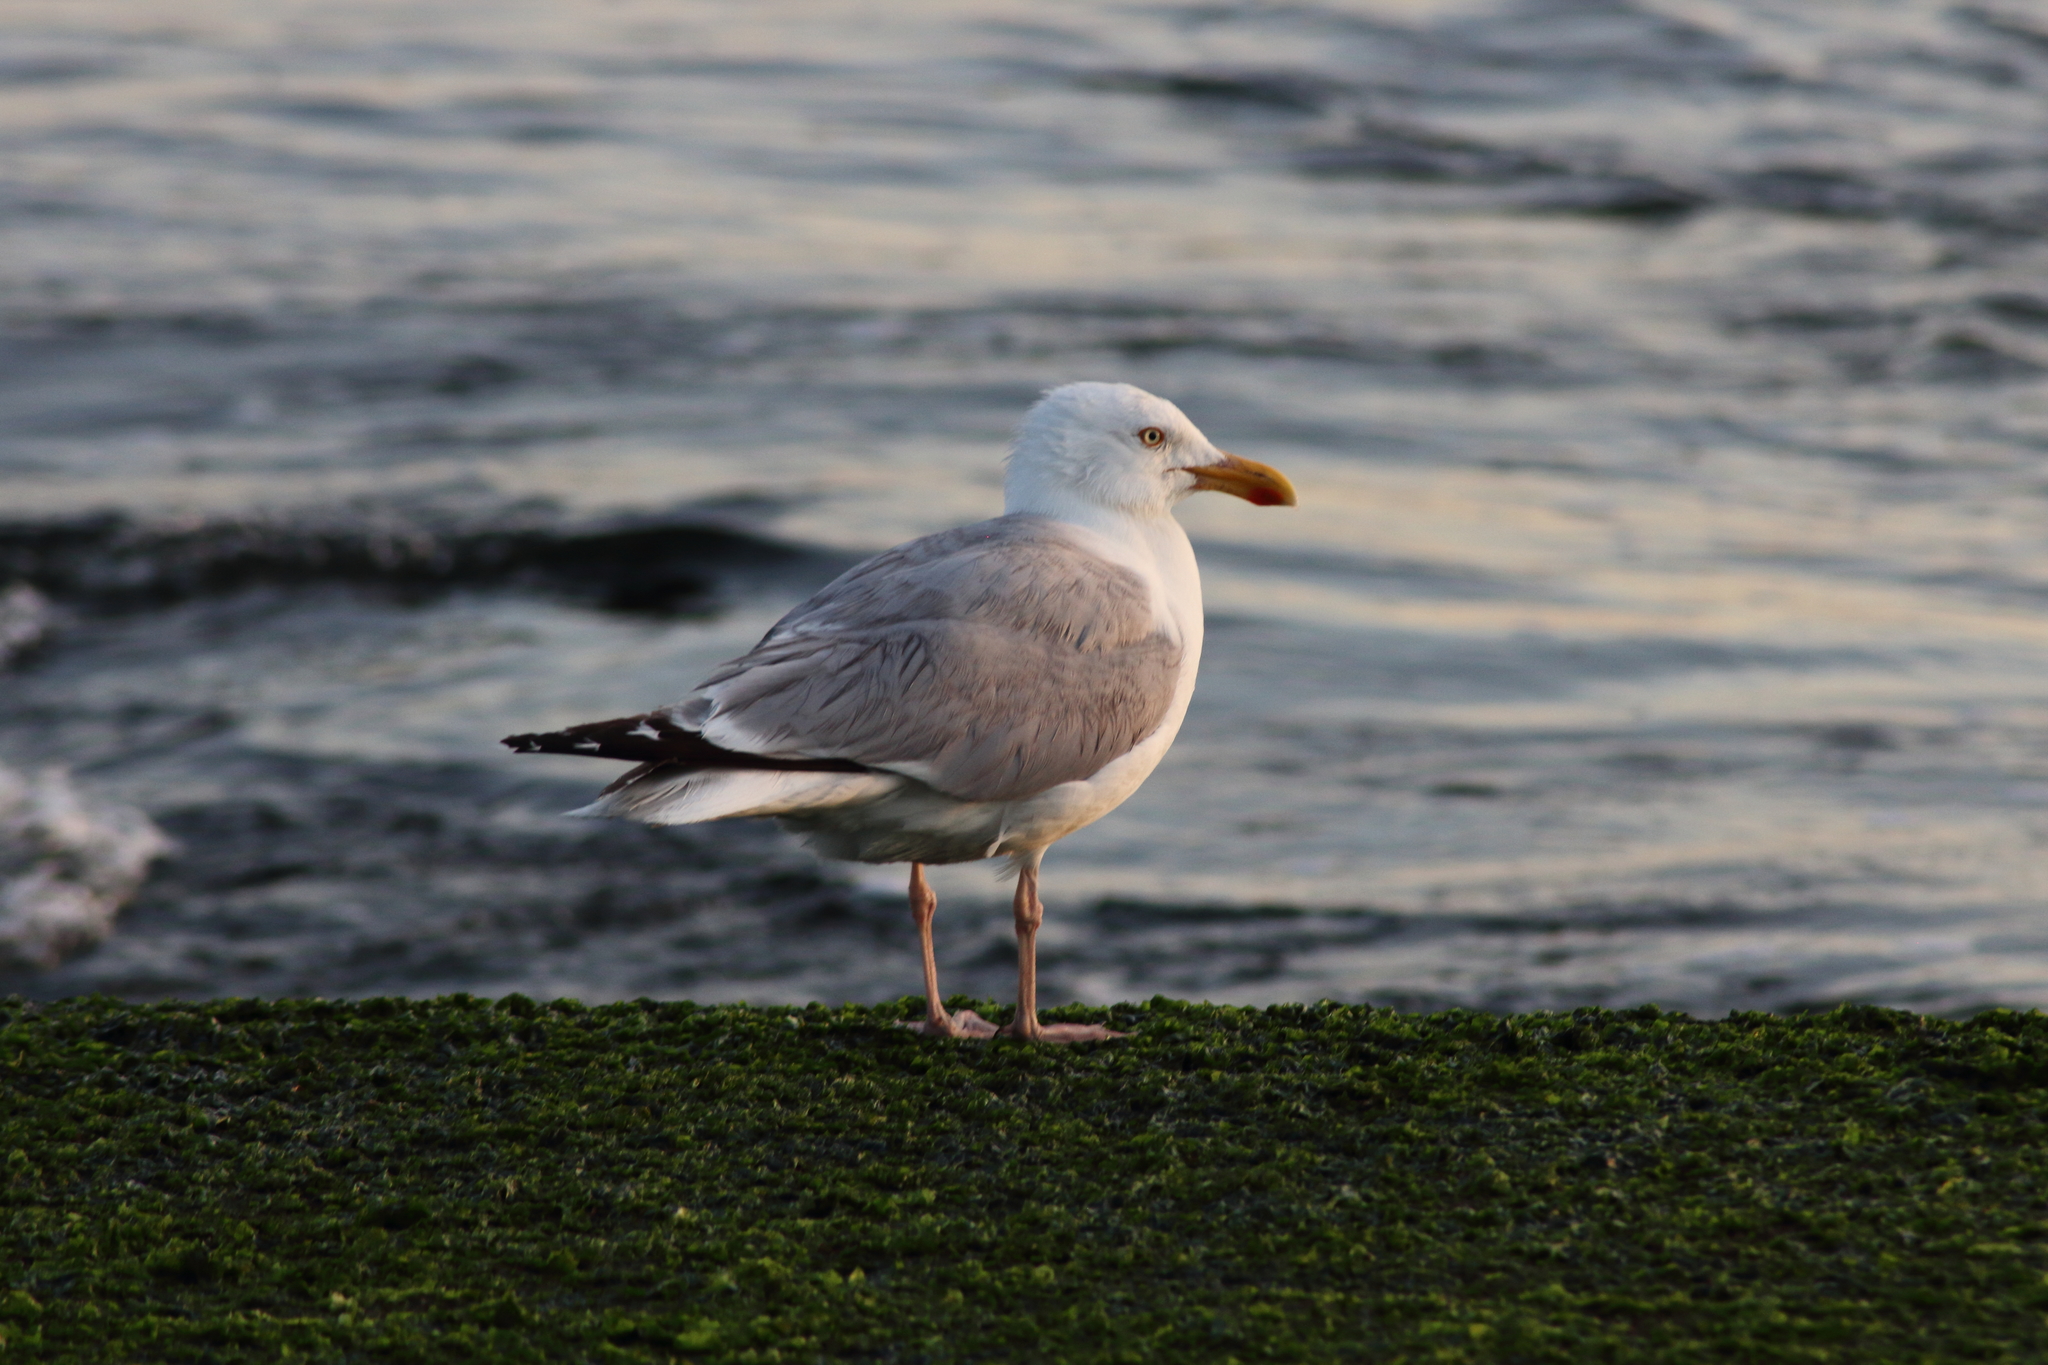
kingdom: Animalia
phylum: Chordata
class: Aves
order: Charadriiformes
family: Laridae
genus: Larus
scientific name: Larus argentatus
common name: Herring gull
